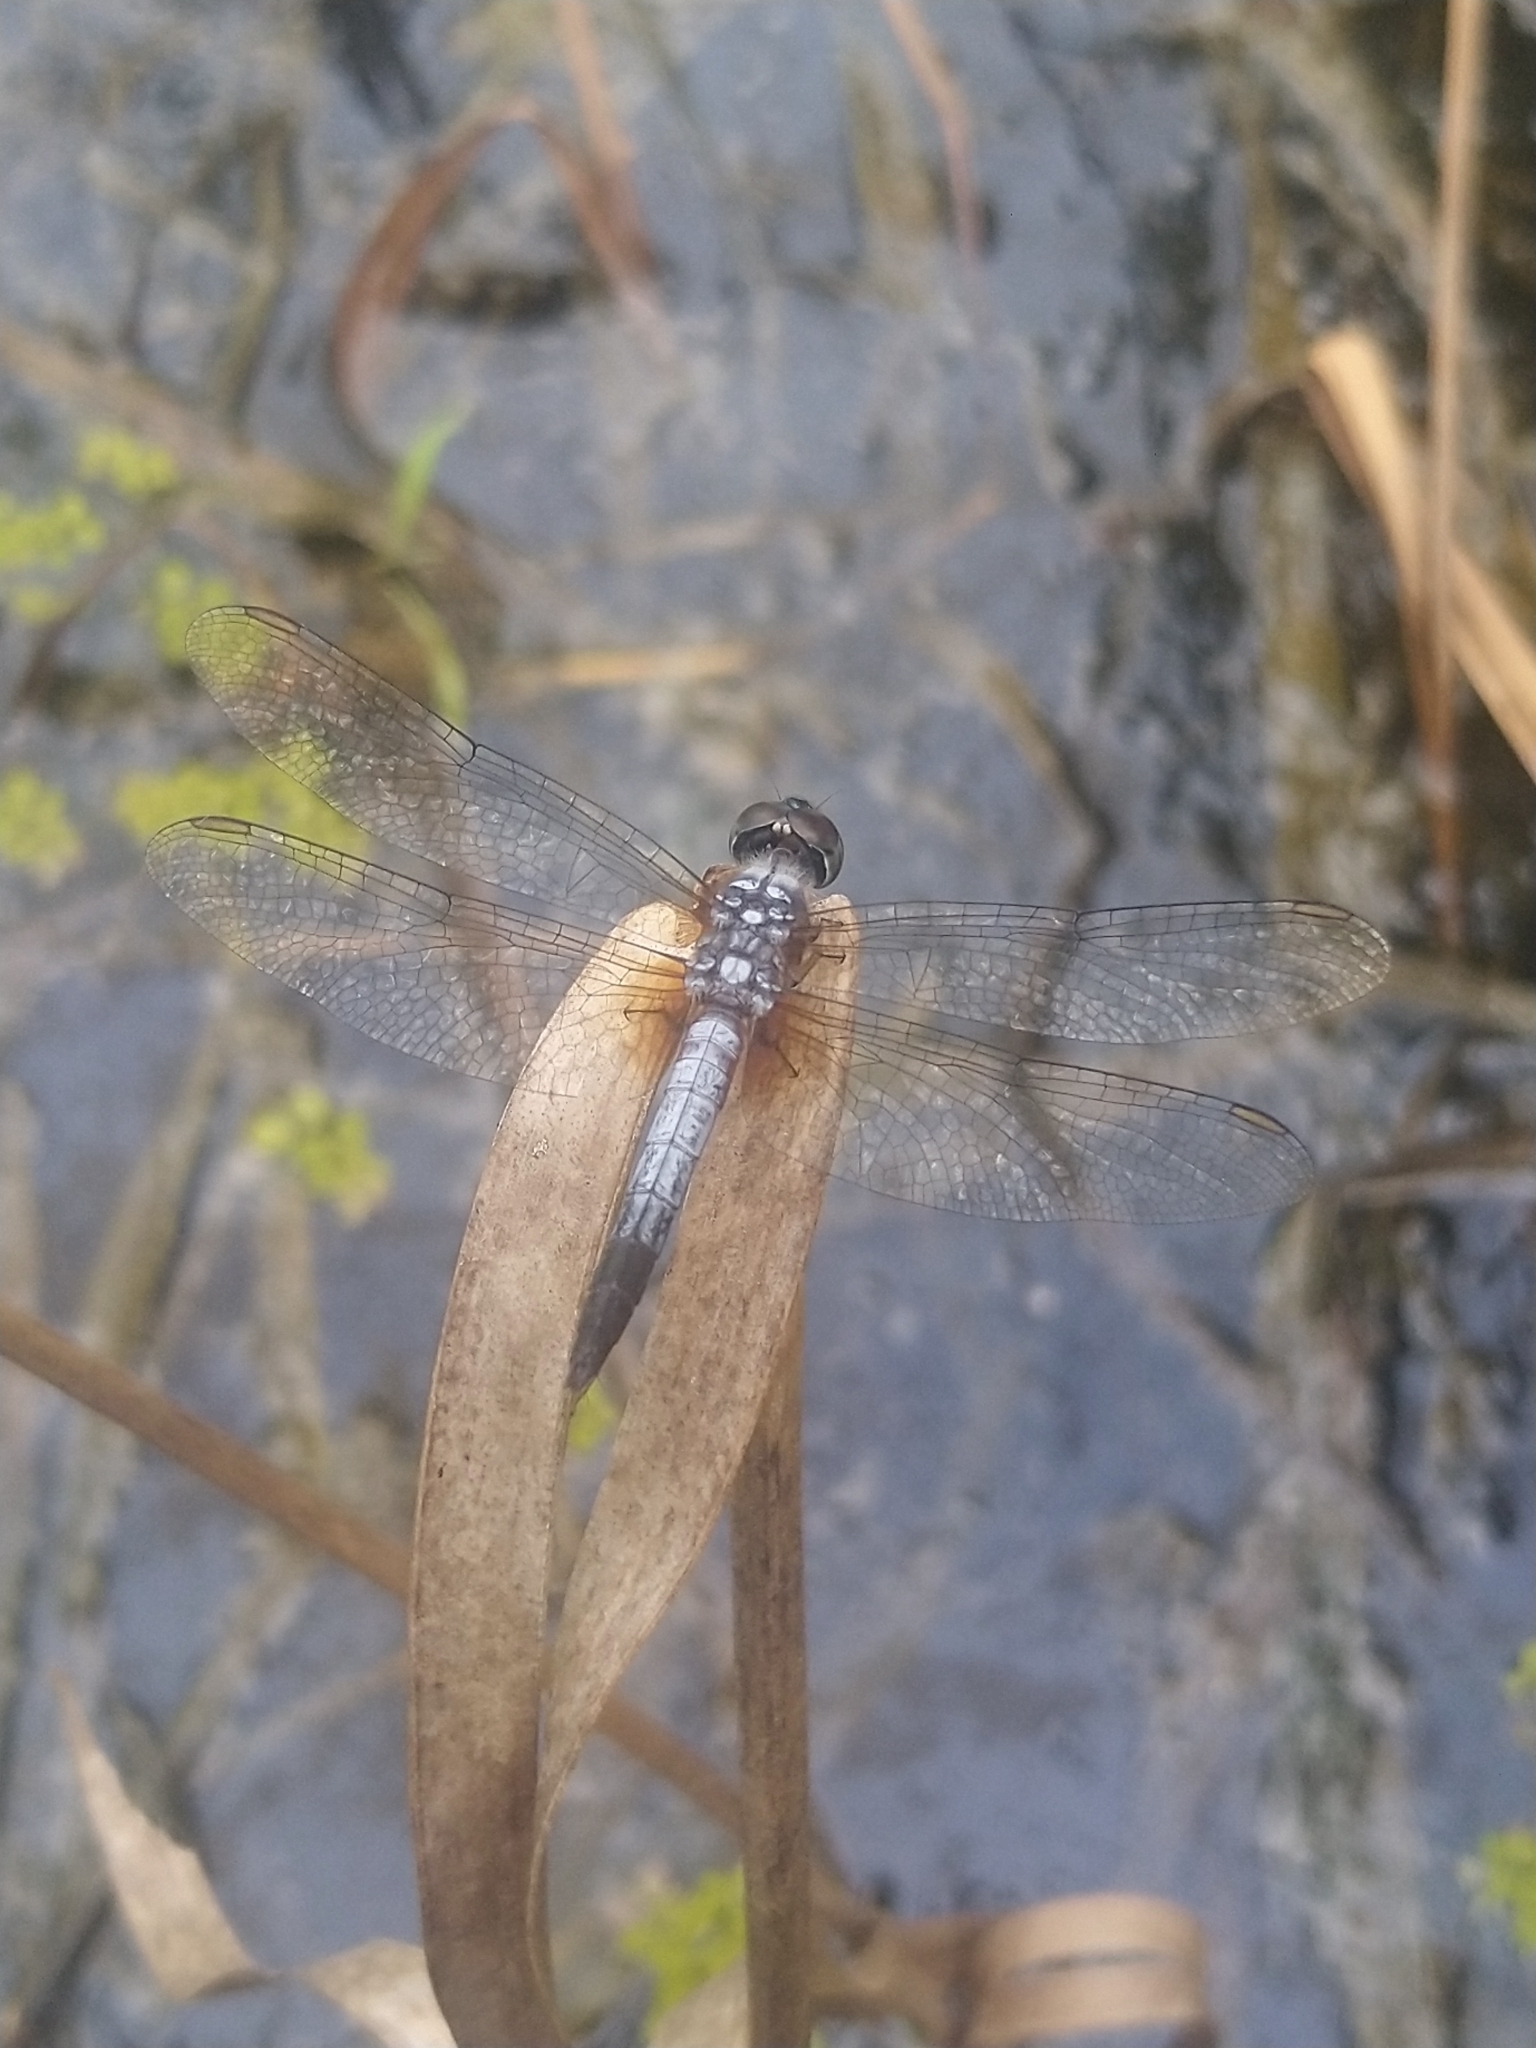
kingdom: Animalia
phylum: Arthropoda
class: Insecta
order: Odonata
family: Libellulidae
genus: Brachydiplax
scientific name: Brachydiplax chalybea
